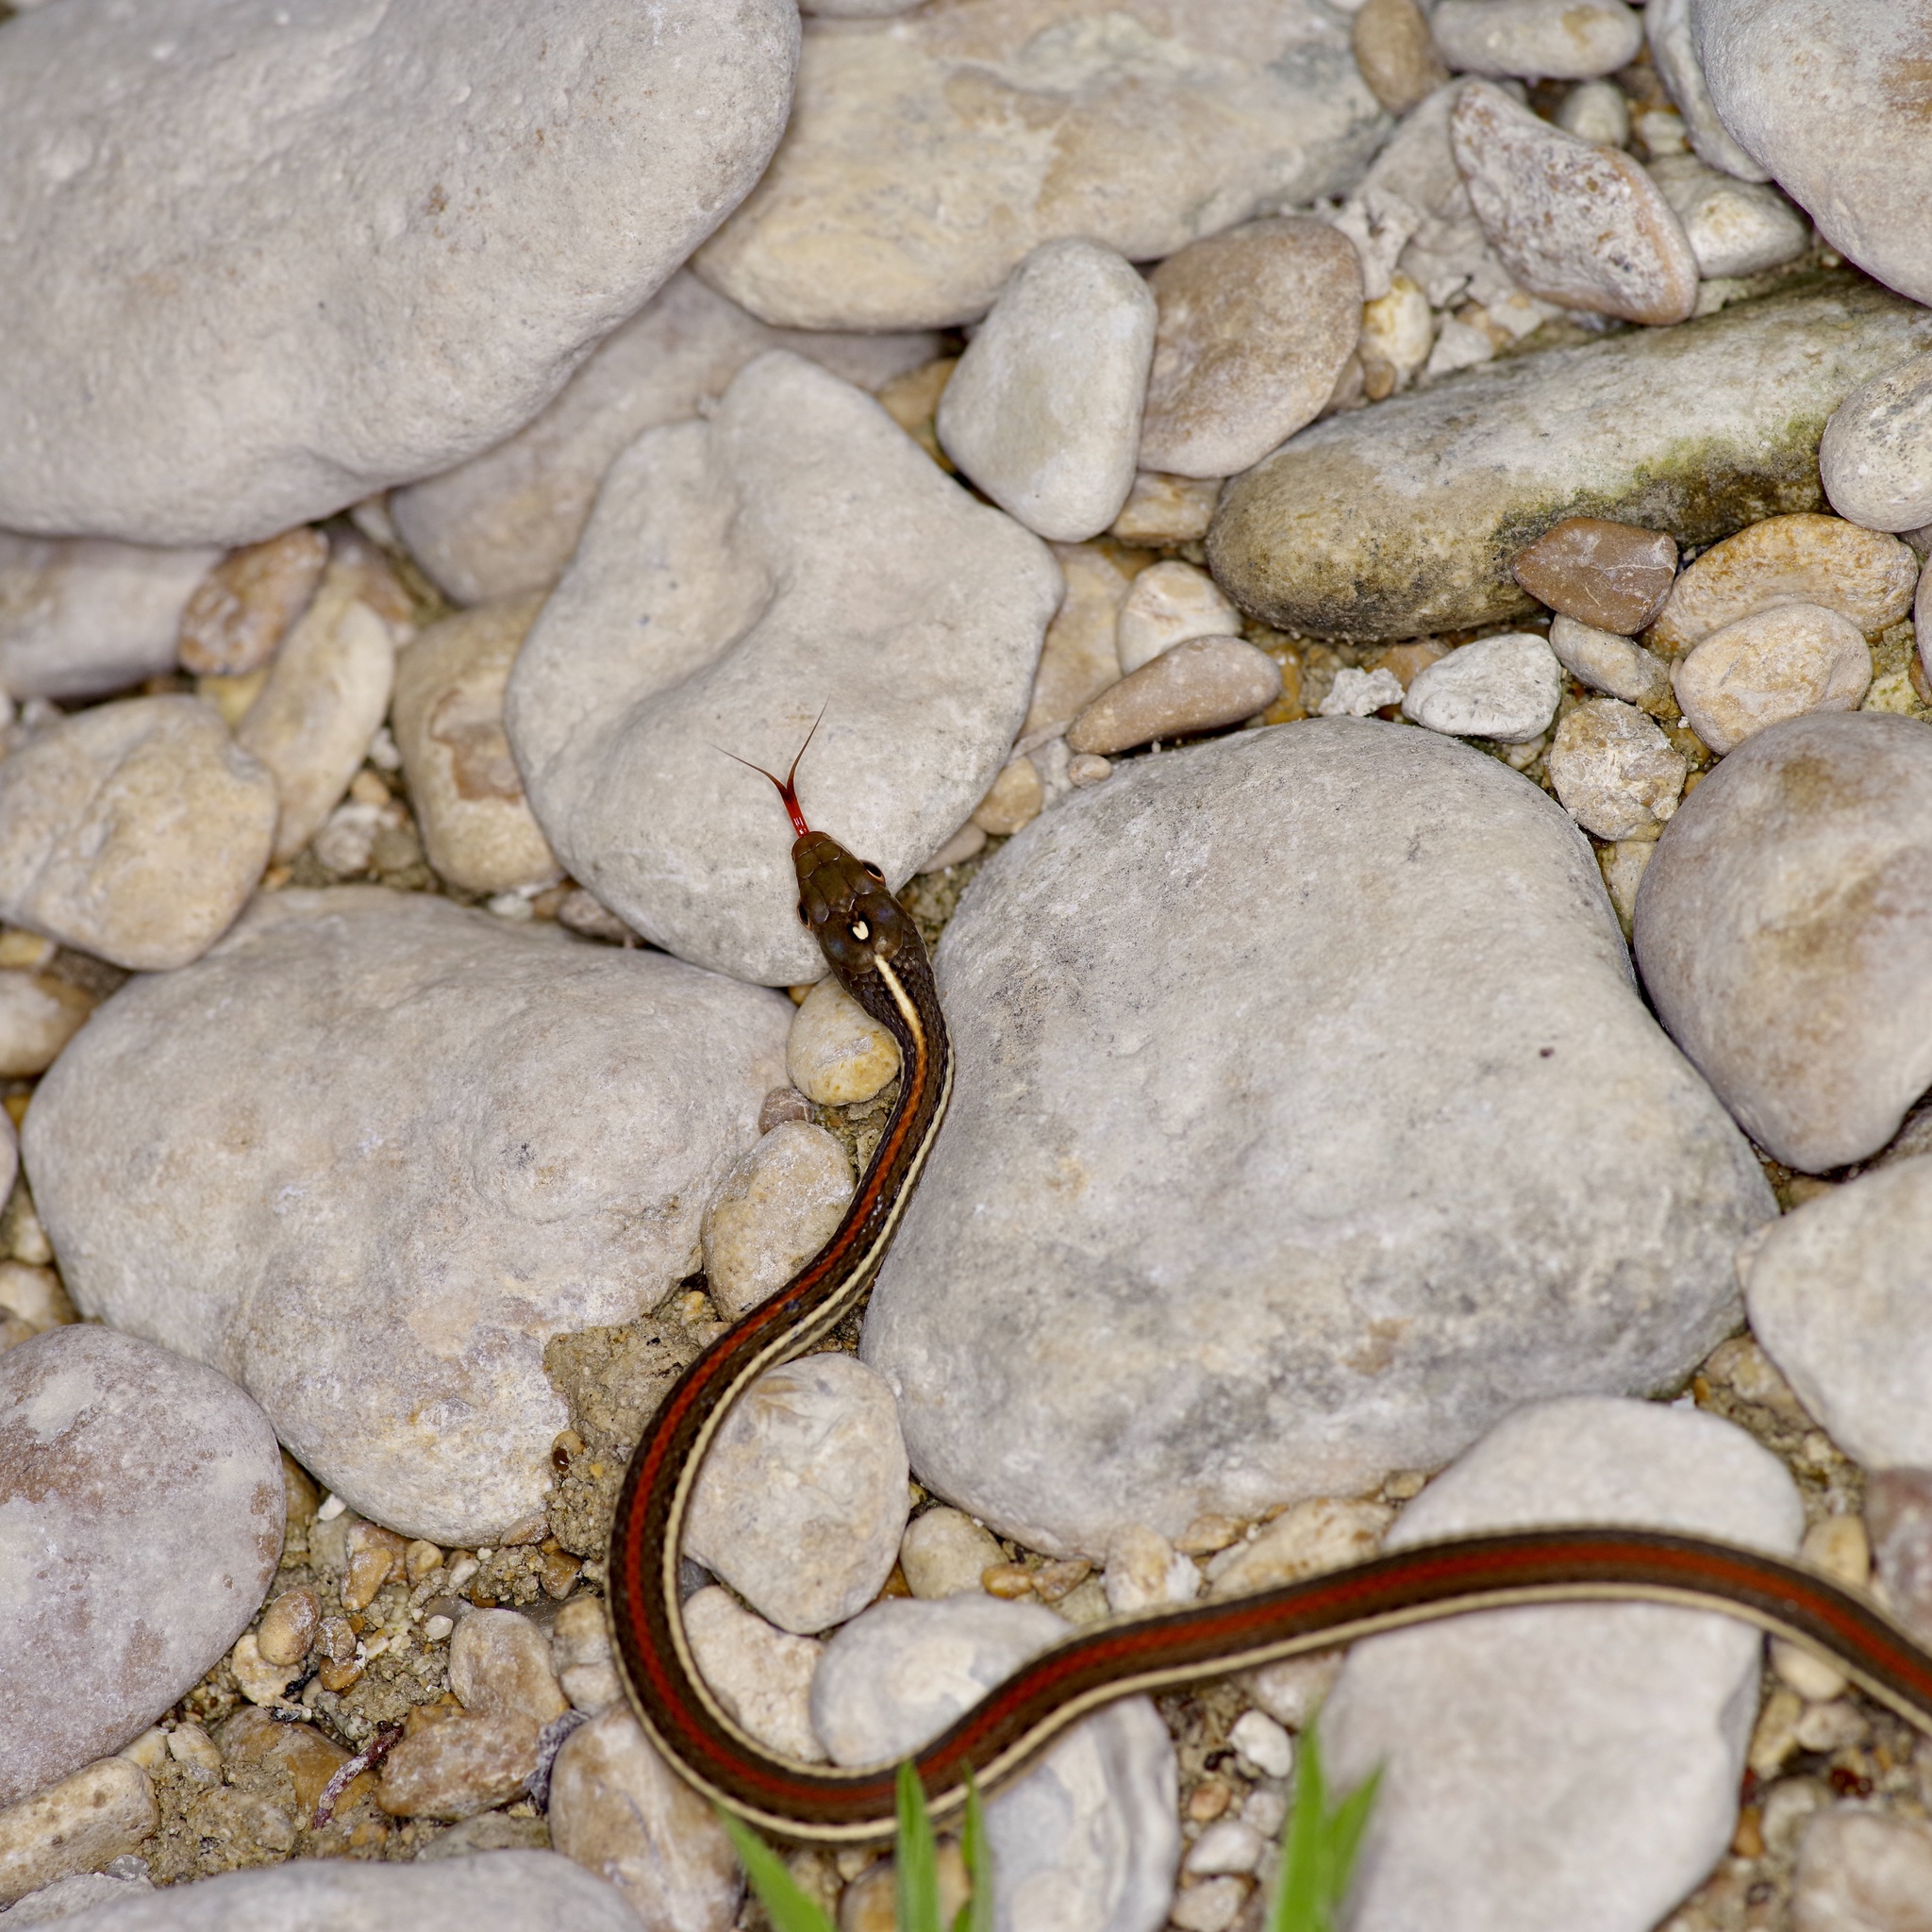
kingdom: Animalia
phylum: Chordata
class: Squamata
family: Colubridae
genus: Thamnophis
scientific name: Thamnophis proximus
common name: Western ribbon snake
